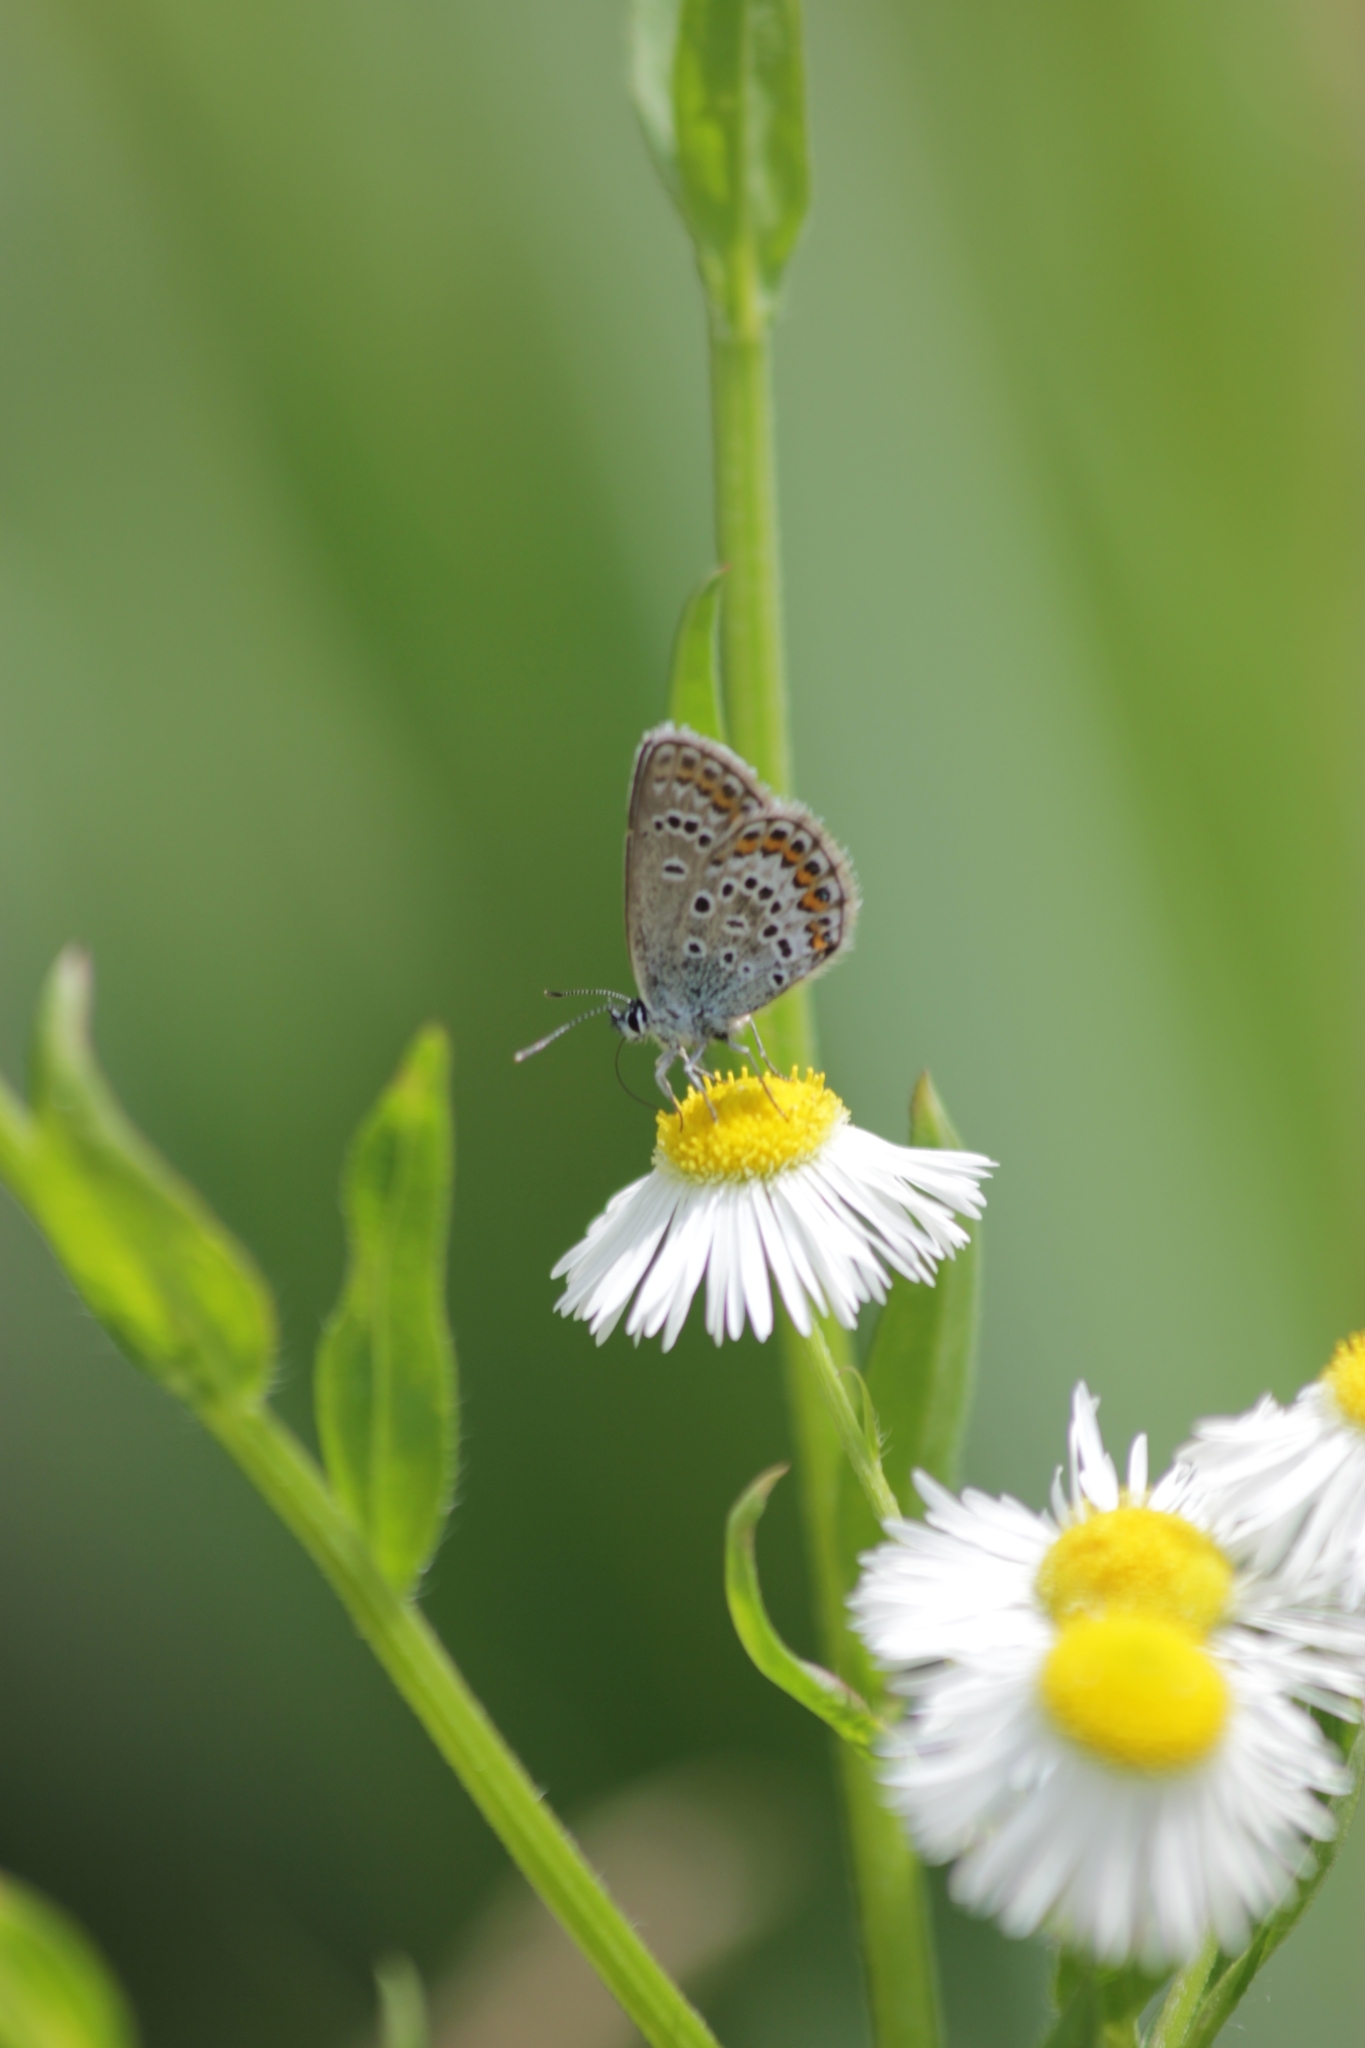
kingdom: Animalia
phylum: Arthropoda
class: Insecta
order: Lepidoptera
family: Lycaenidae
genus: Plebejus
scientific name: Plebejus argus
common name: Silver-studded blue
